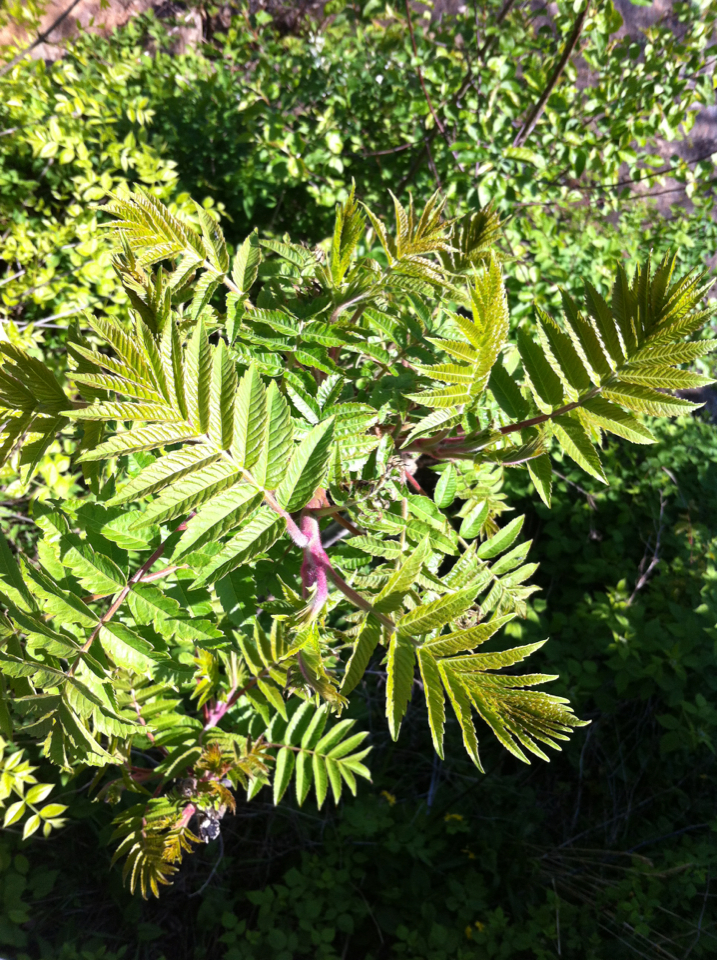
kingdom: Plantae
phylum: Tracheophyta
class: Magnoliopsida
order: Sapindales
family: Anacardiaceae
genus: Rhus
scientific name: Rhus typhina
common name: Staghorn sumac
